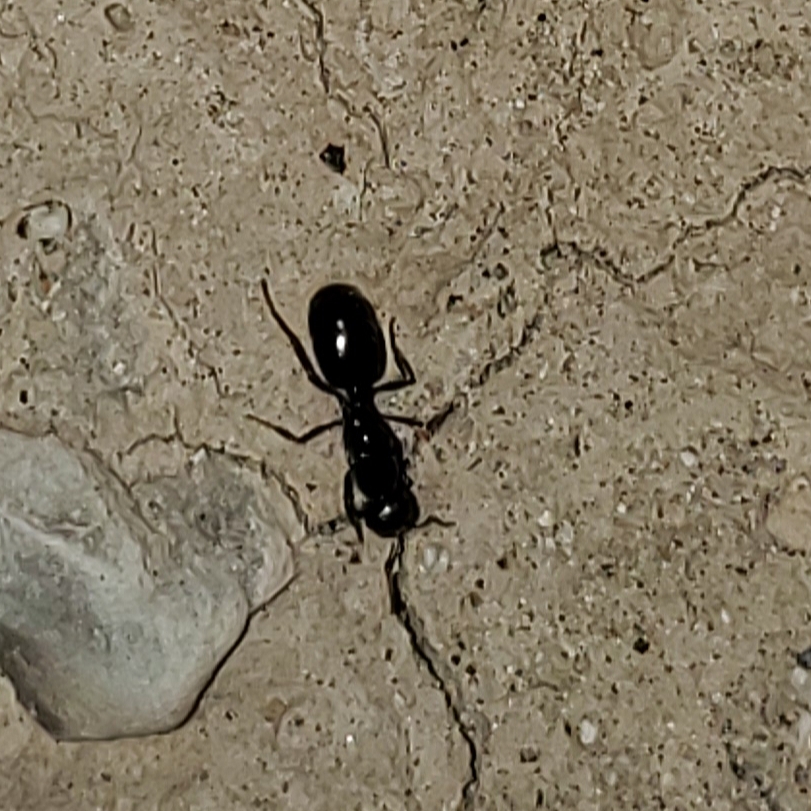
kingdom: Animalia
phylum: Arthropoda
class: Insecta
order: Hymenoptera
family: Formicidae
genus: Messor
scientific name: Messor pergandei
